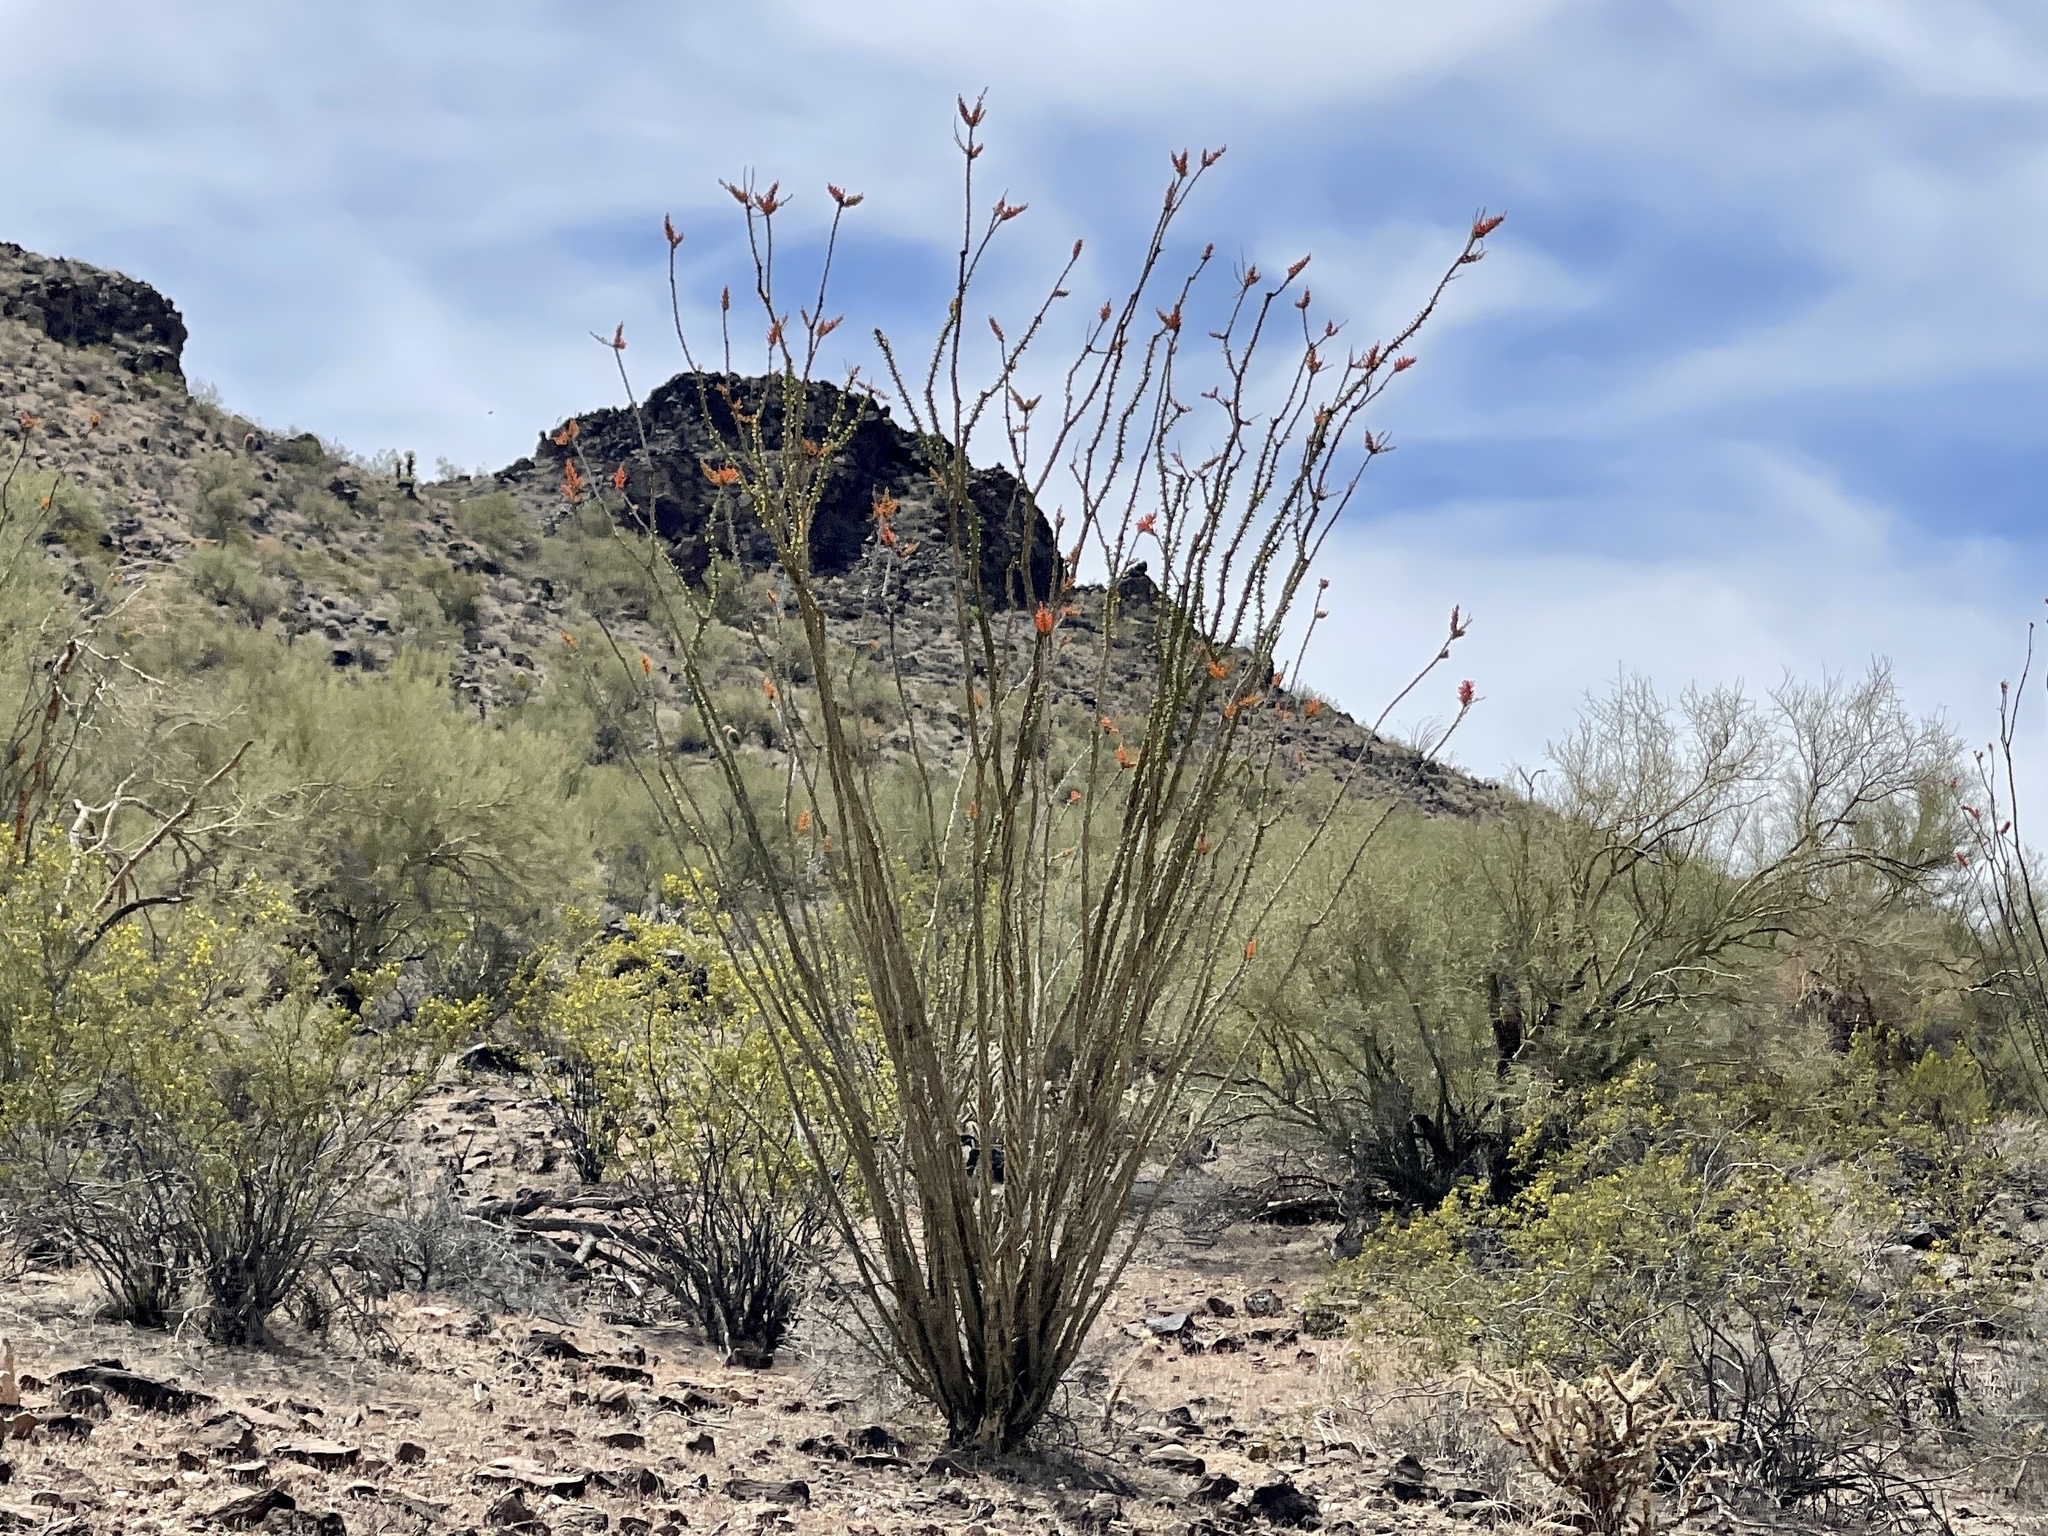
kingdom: Plantae
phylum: Tracheophyta
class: Magnoliopsida
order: Ericales
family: Fouquieriaceae
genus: Fouquieria
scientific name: Fouquieria splendens
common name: Vine-cactus
